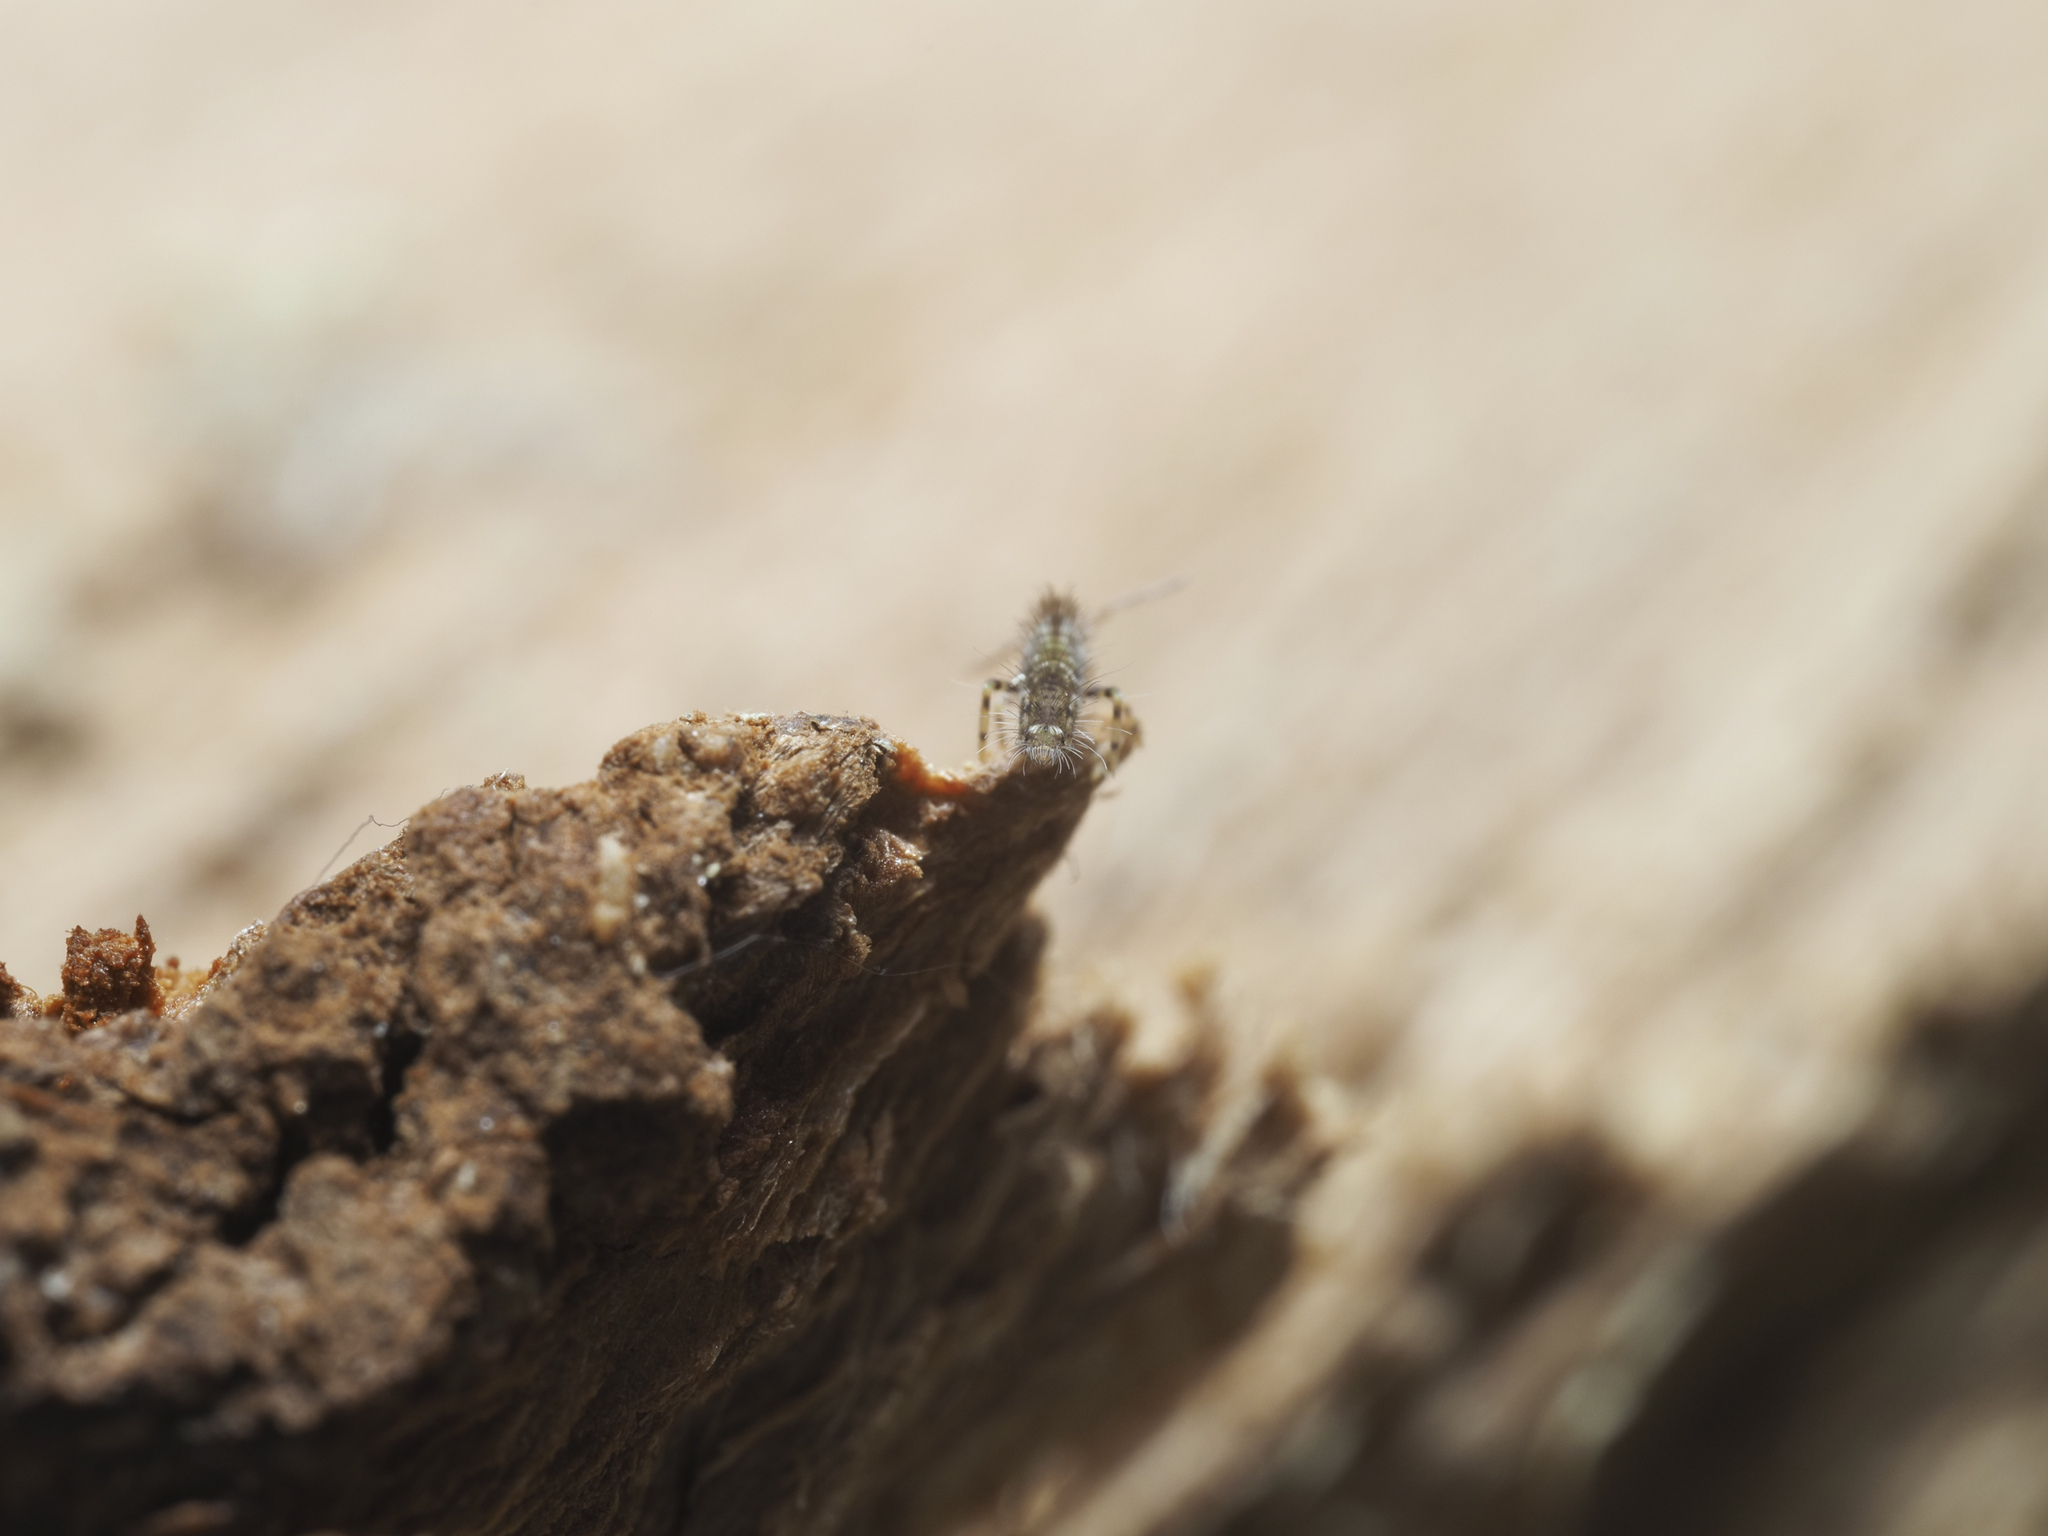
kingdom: Animalia
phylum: Arthropoda
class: Collembola
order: Entomobryomorpha
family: Entomobryidae
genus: Entomobrya
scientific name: Entomobrya dorsalis
